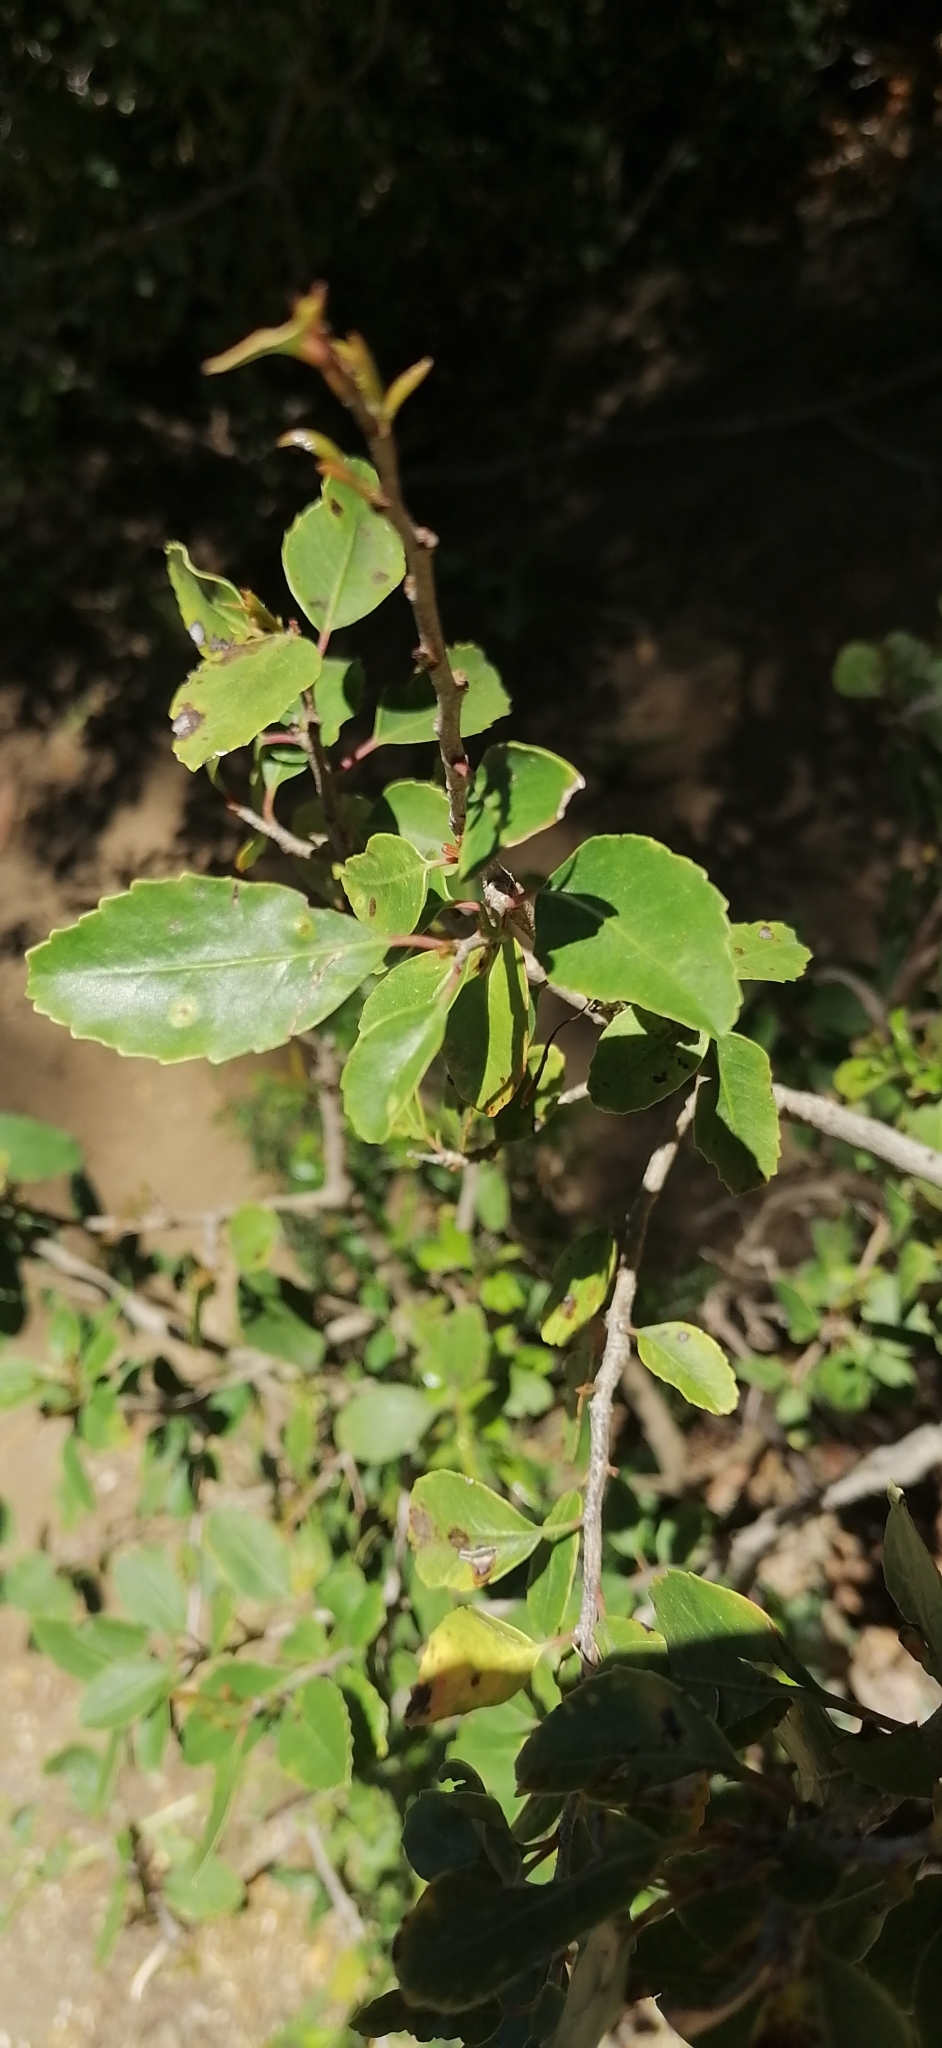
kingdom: Plantae
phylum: Tracheophyta
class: Magnoliopsida
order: Sapindales
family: Anacardiaceae
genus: Schinus
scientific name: Schinus patagonica
